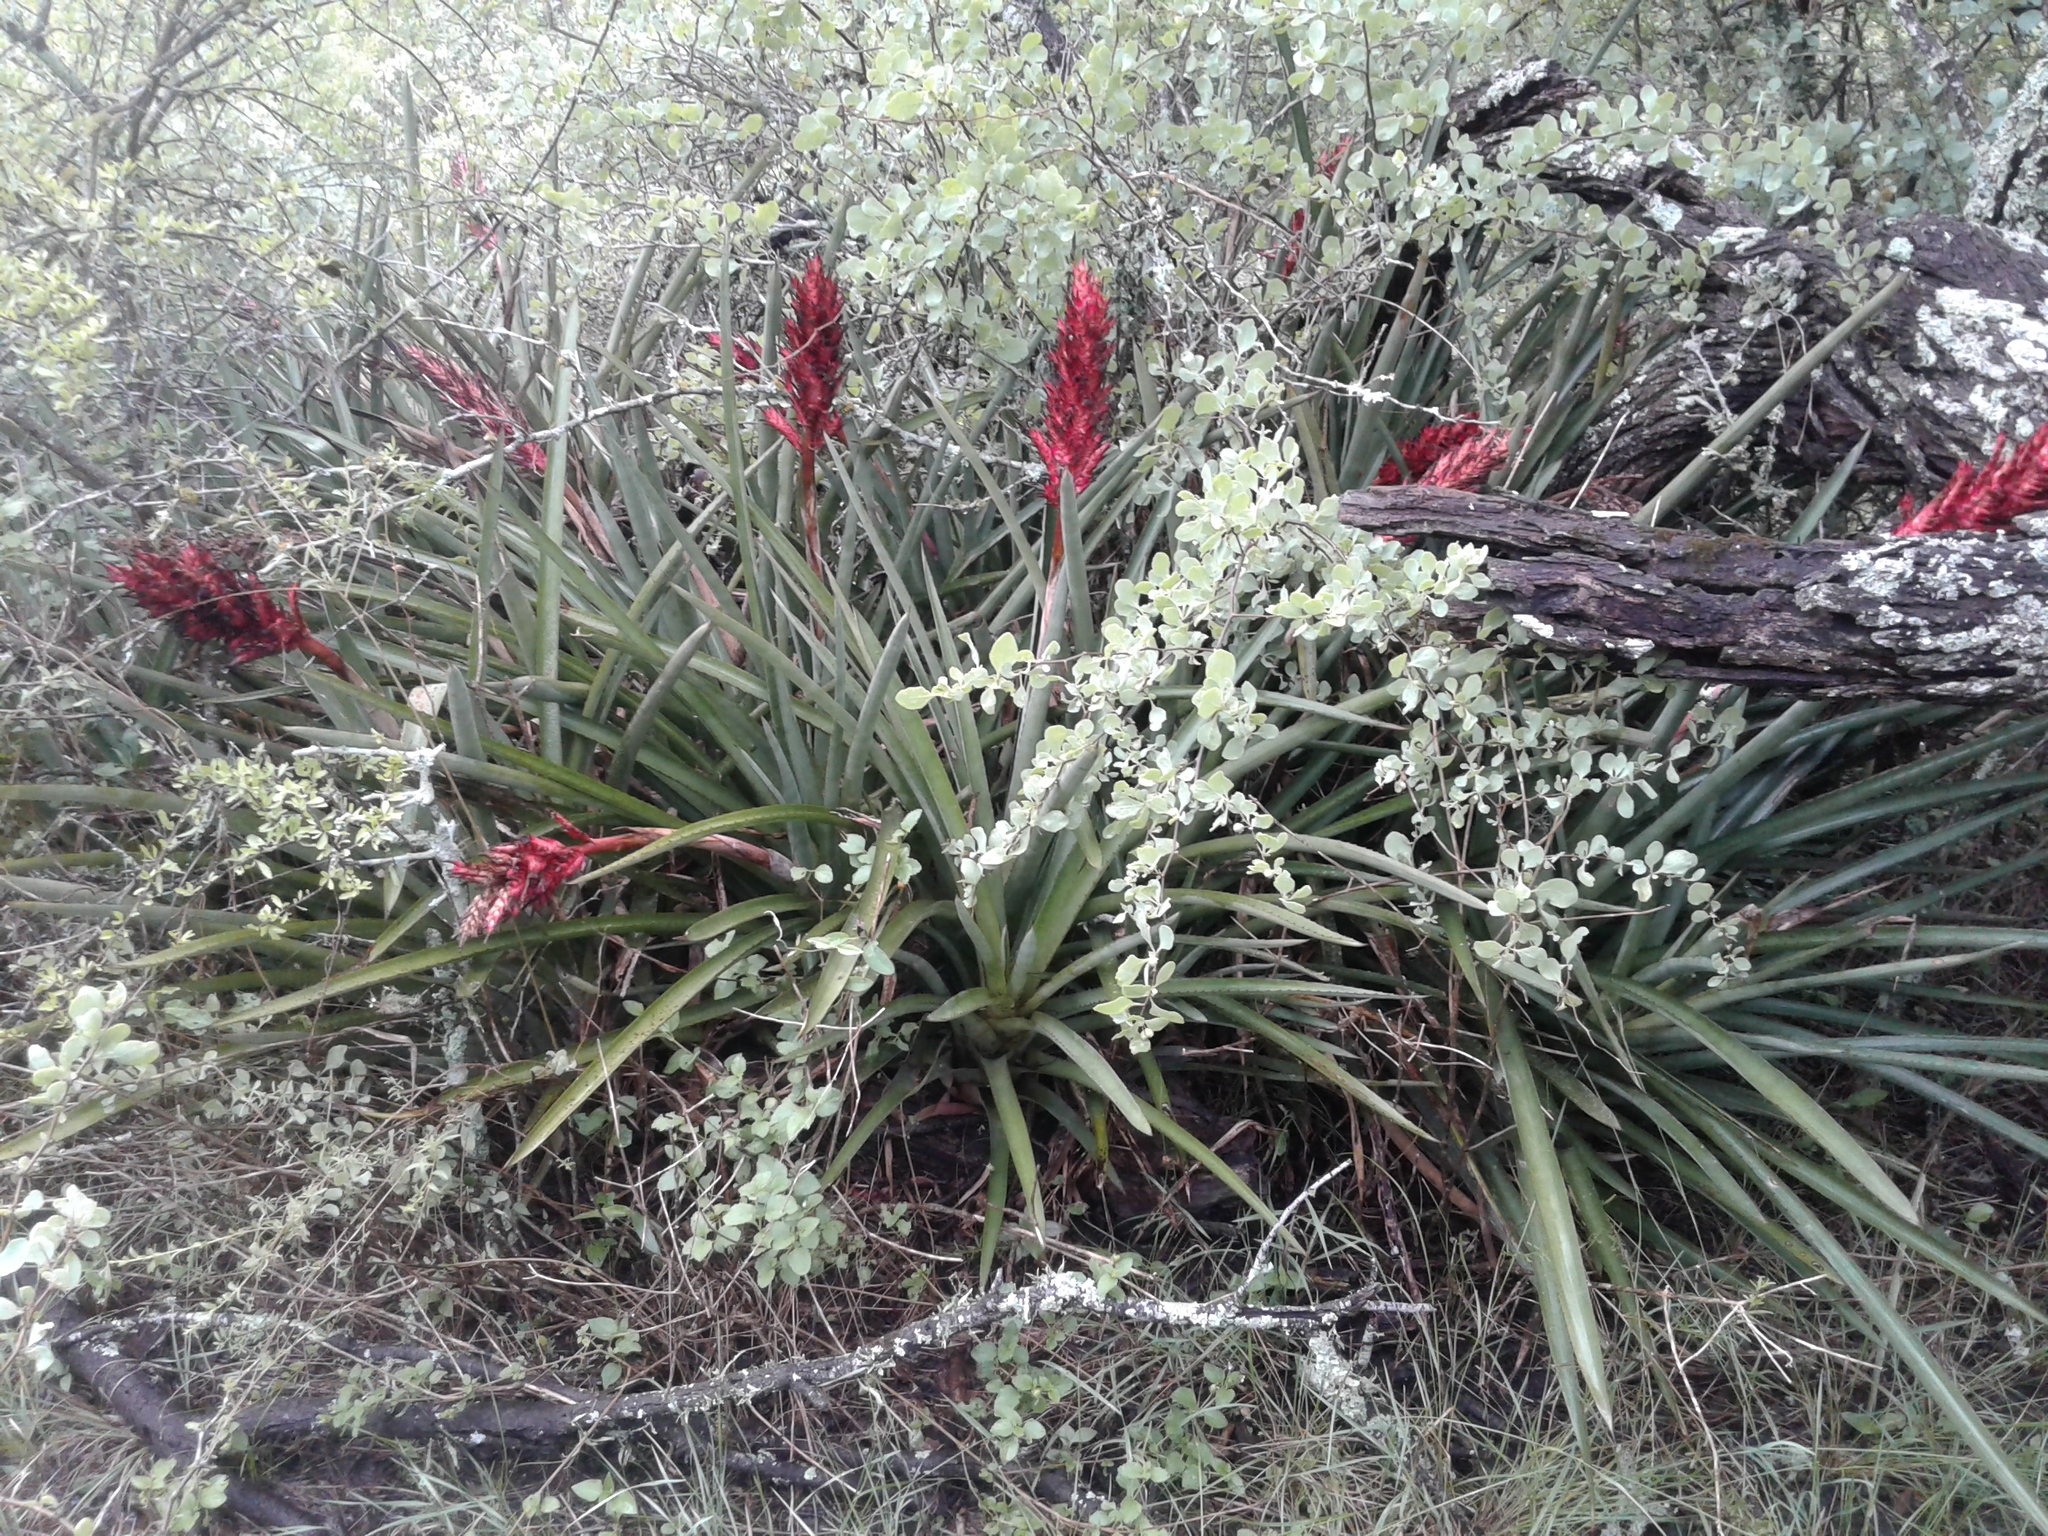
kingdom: Plantae
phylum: Tracheophyta
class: Liliopsida
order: Poales
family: Bromeliaceae
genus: Aechmea
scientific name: Aechmea distichantha
